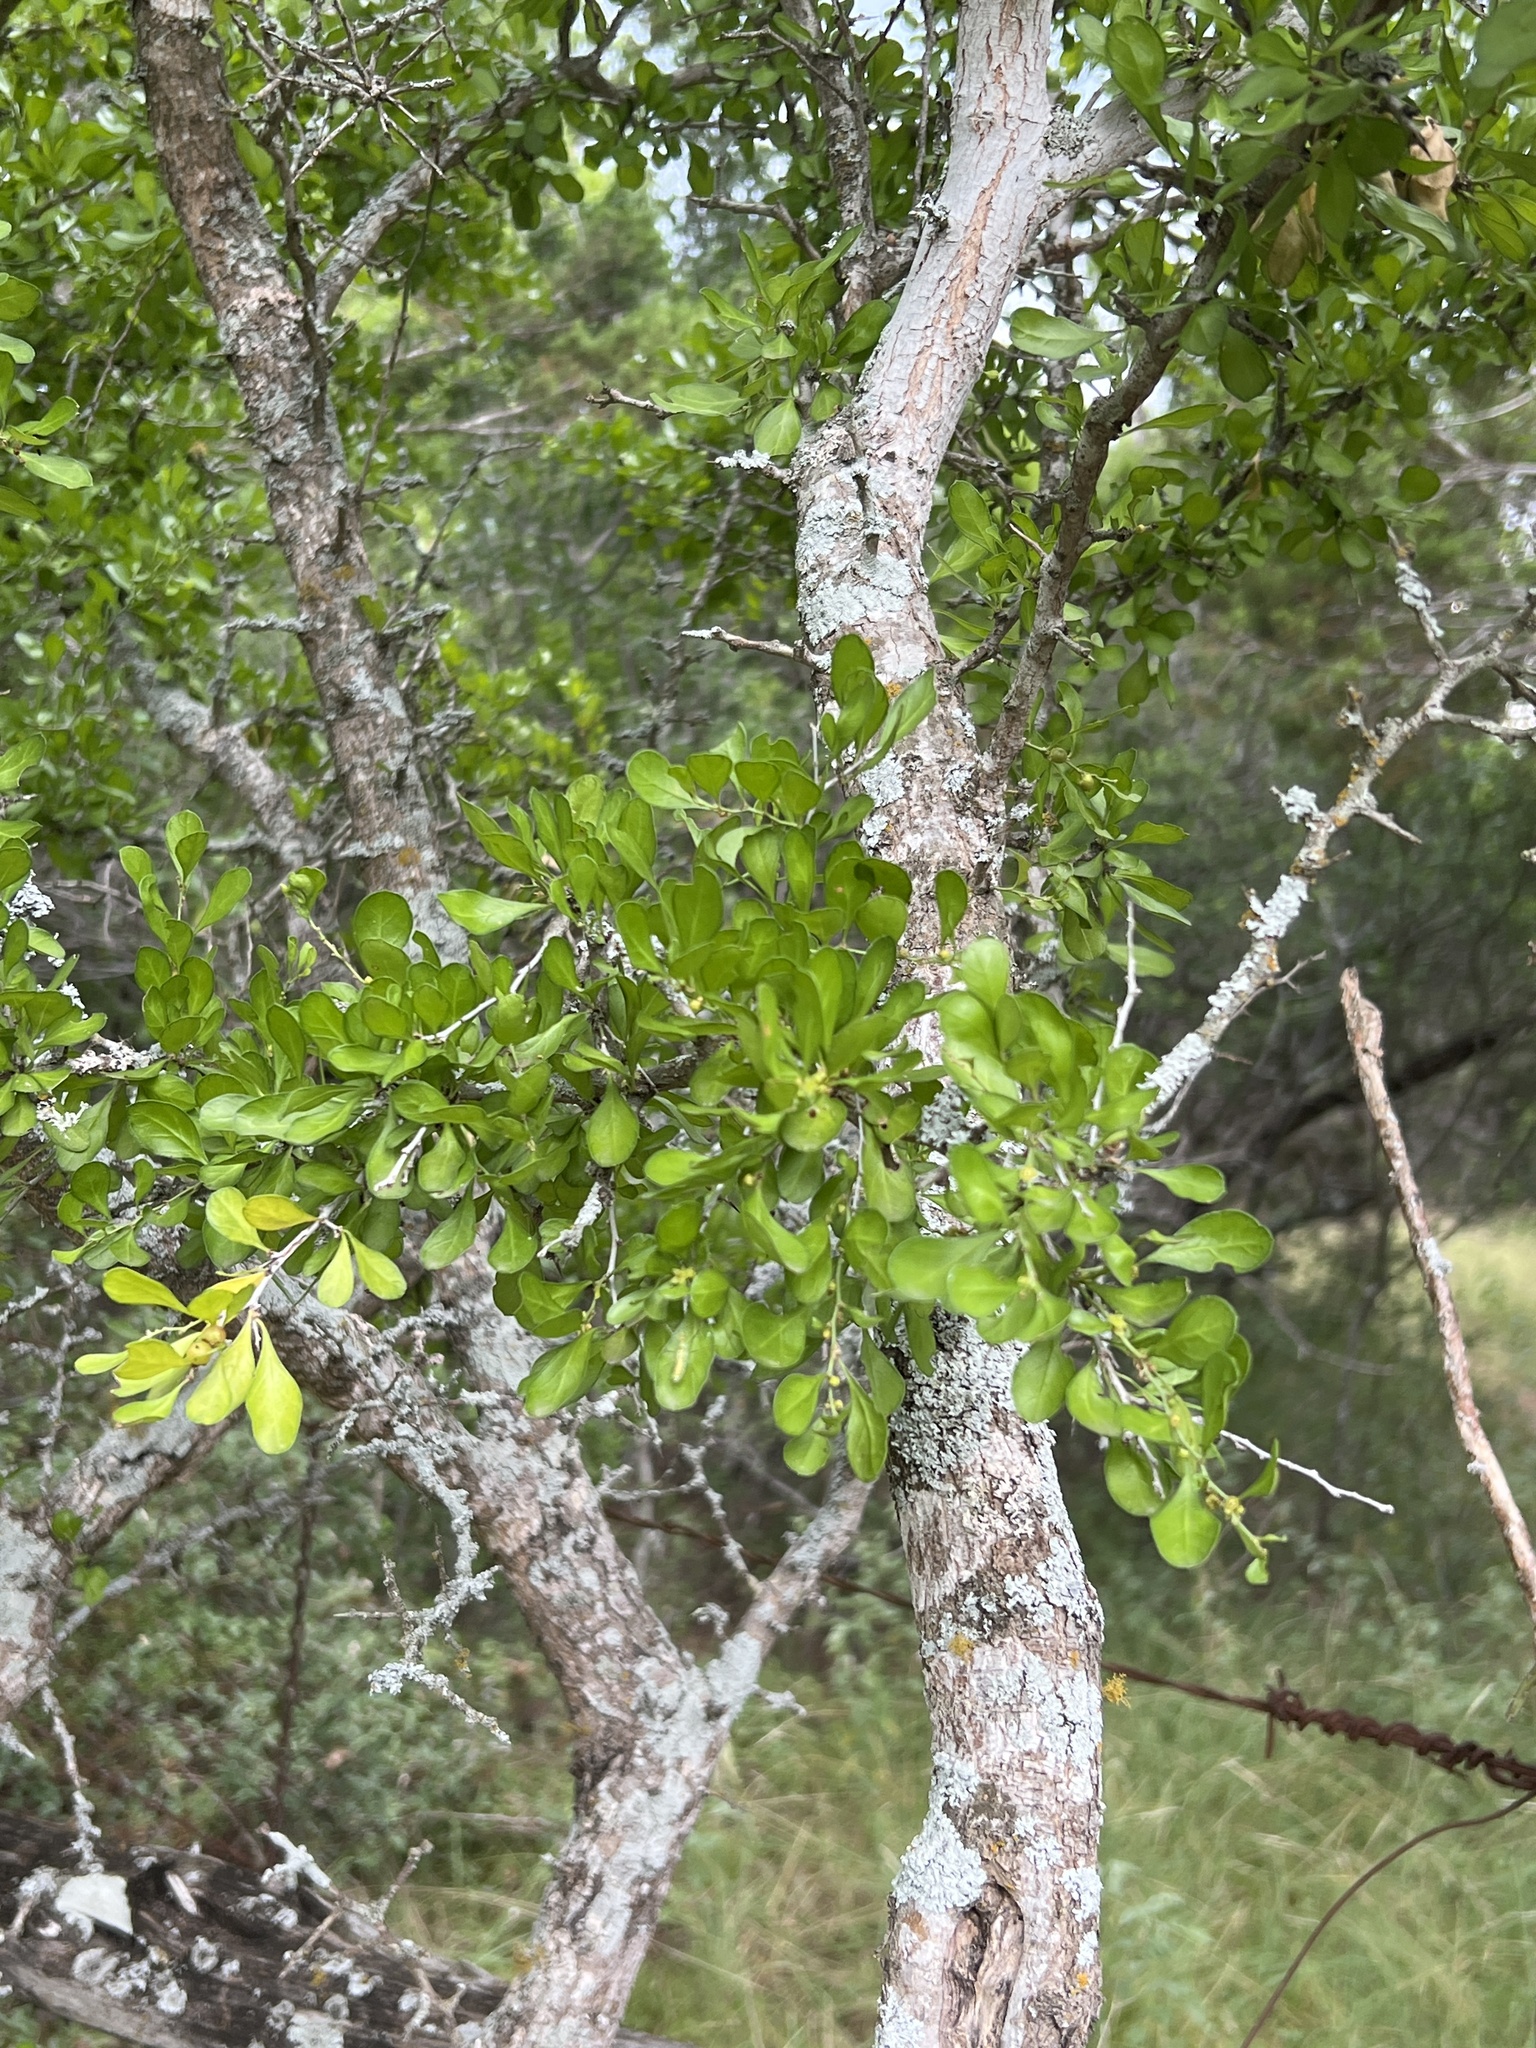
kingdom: Plantae
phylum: Tracheophyta
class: Magnoliopsida
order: Rosales
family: Rhamnaceae
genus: Condalia
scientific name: Condalia hookeri
